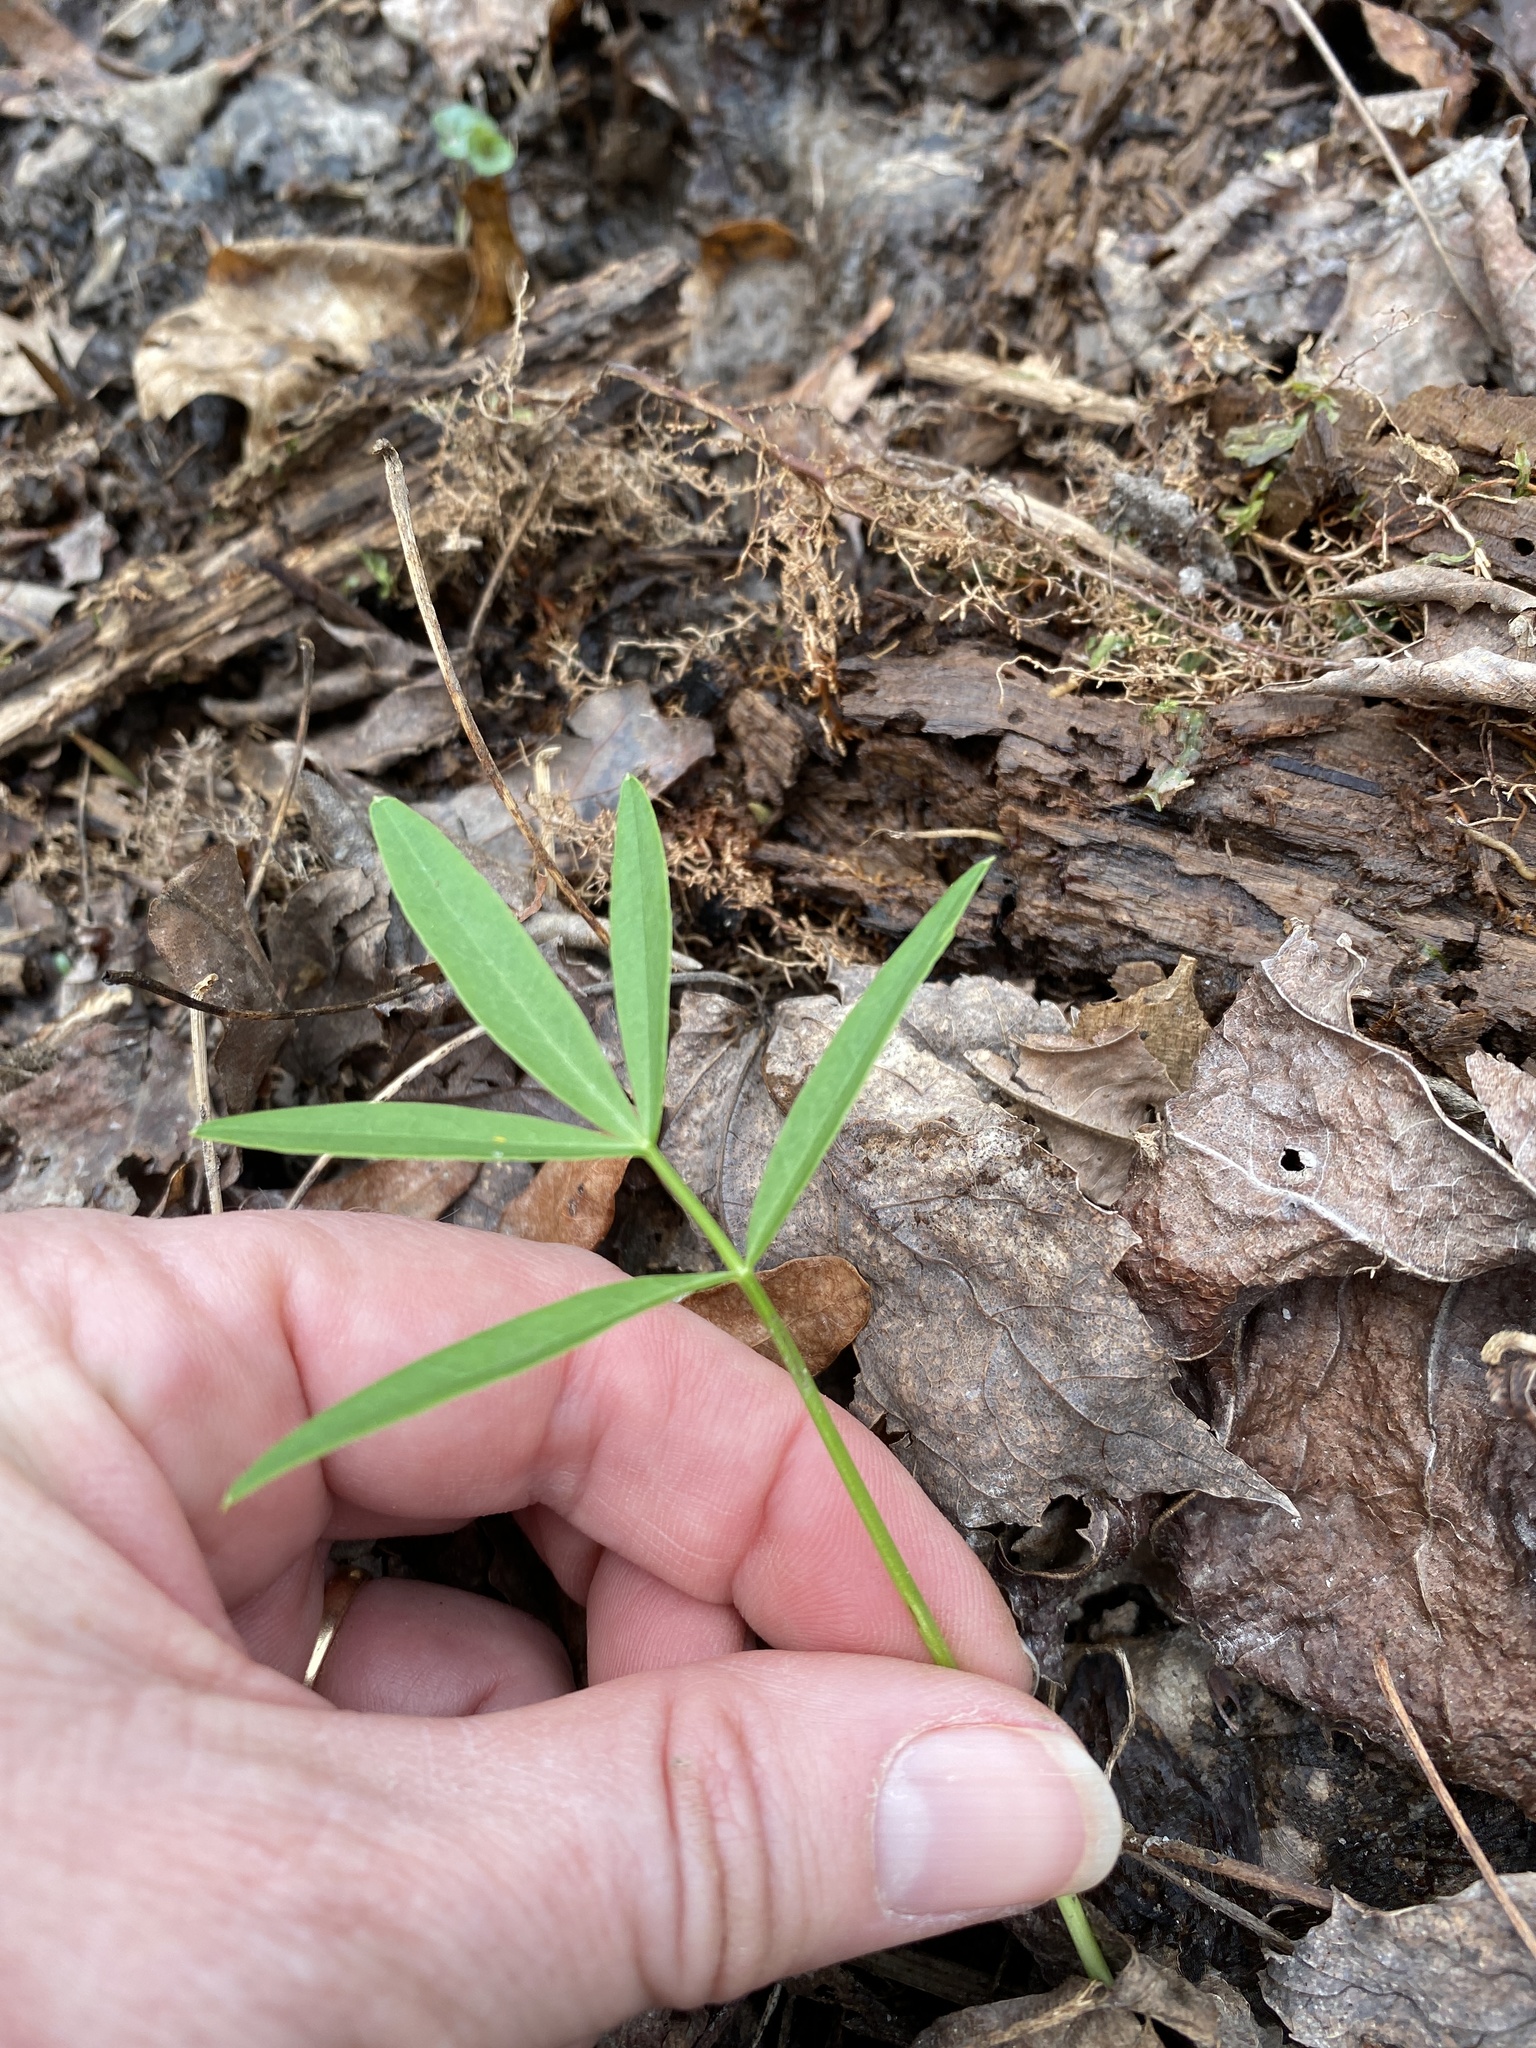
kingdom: Plantae
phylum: Tracheophyta
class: Magnoliopsida
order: Apiales
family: Apiaceae
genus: Oxypolis
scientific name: Oxypolis rigidior
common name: Cowbane
